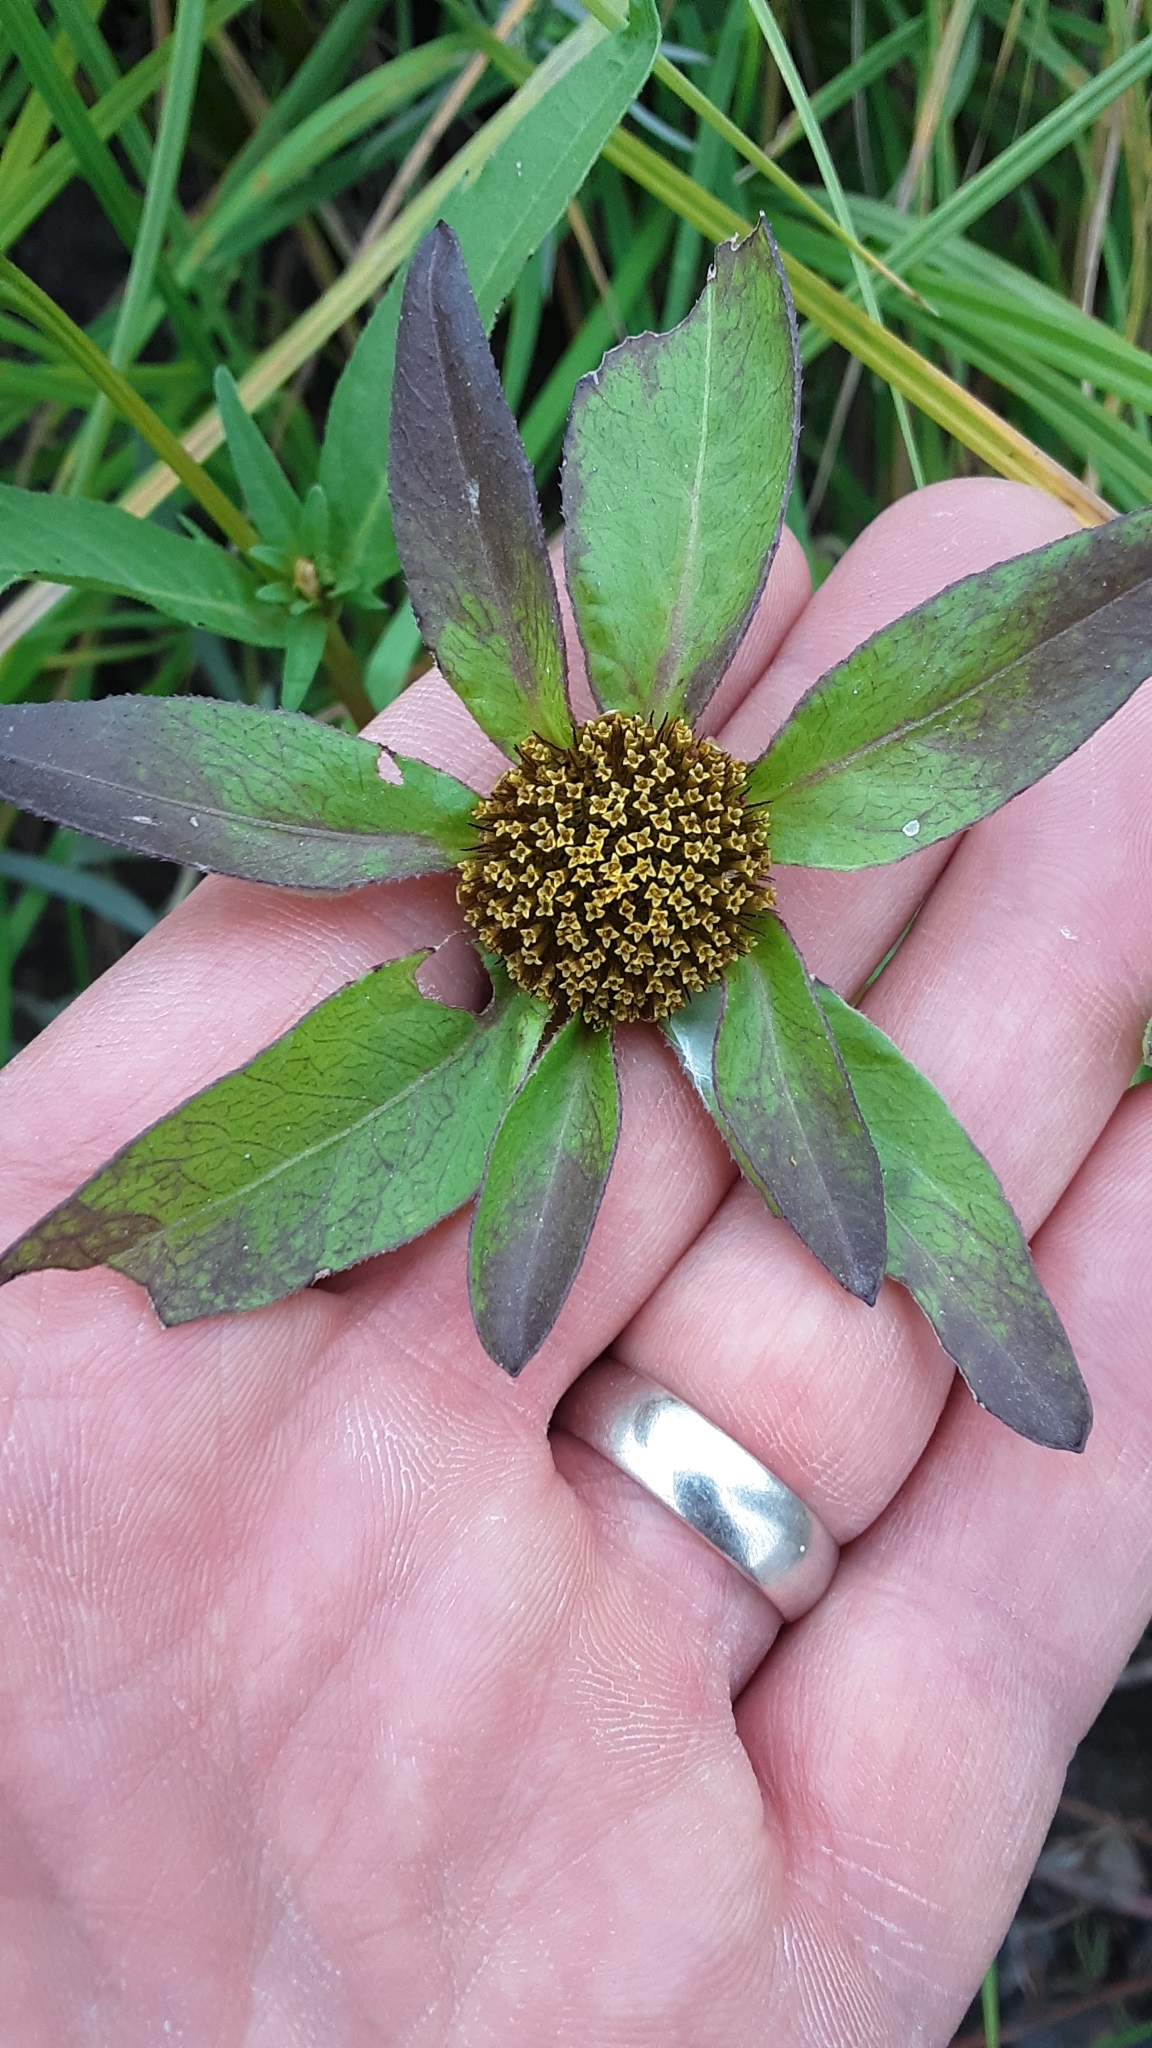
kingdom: Plantae
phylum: Tracheophyta
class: Magnoliopsida
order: Asterales
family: Asteraceae
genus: Bidens
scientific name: Bidens tripartita
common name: Trifid bur-marigold
